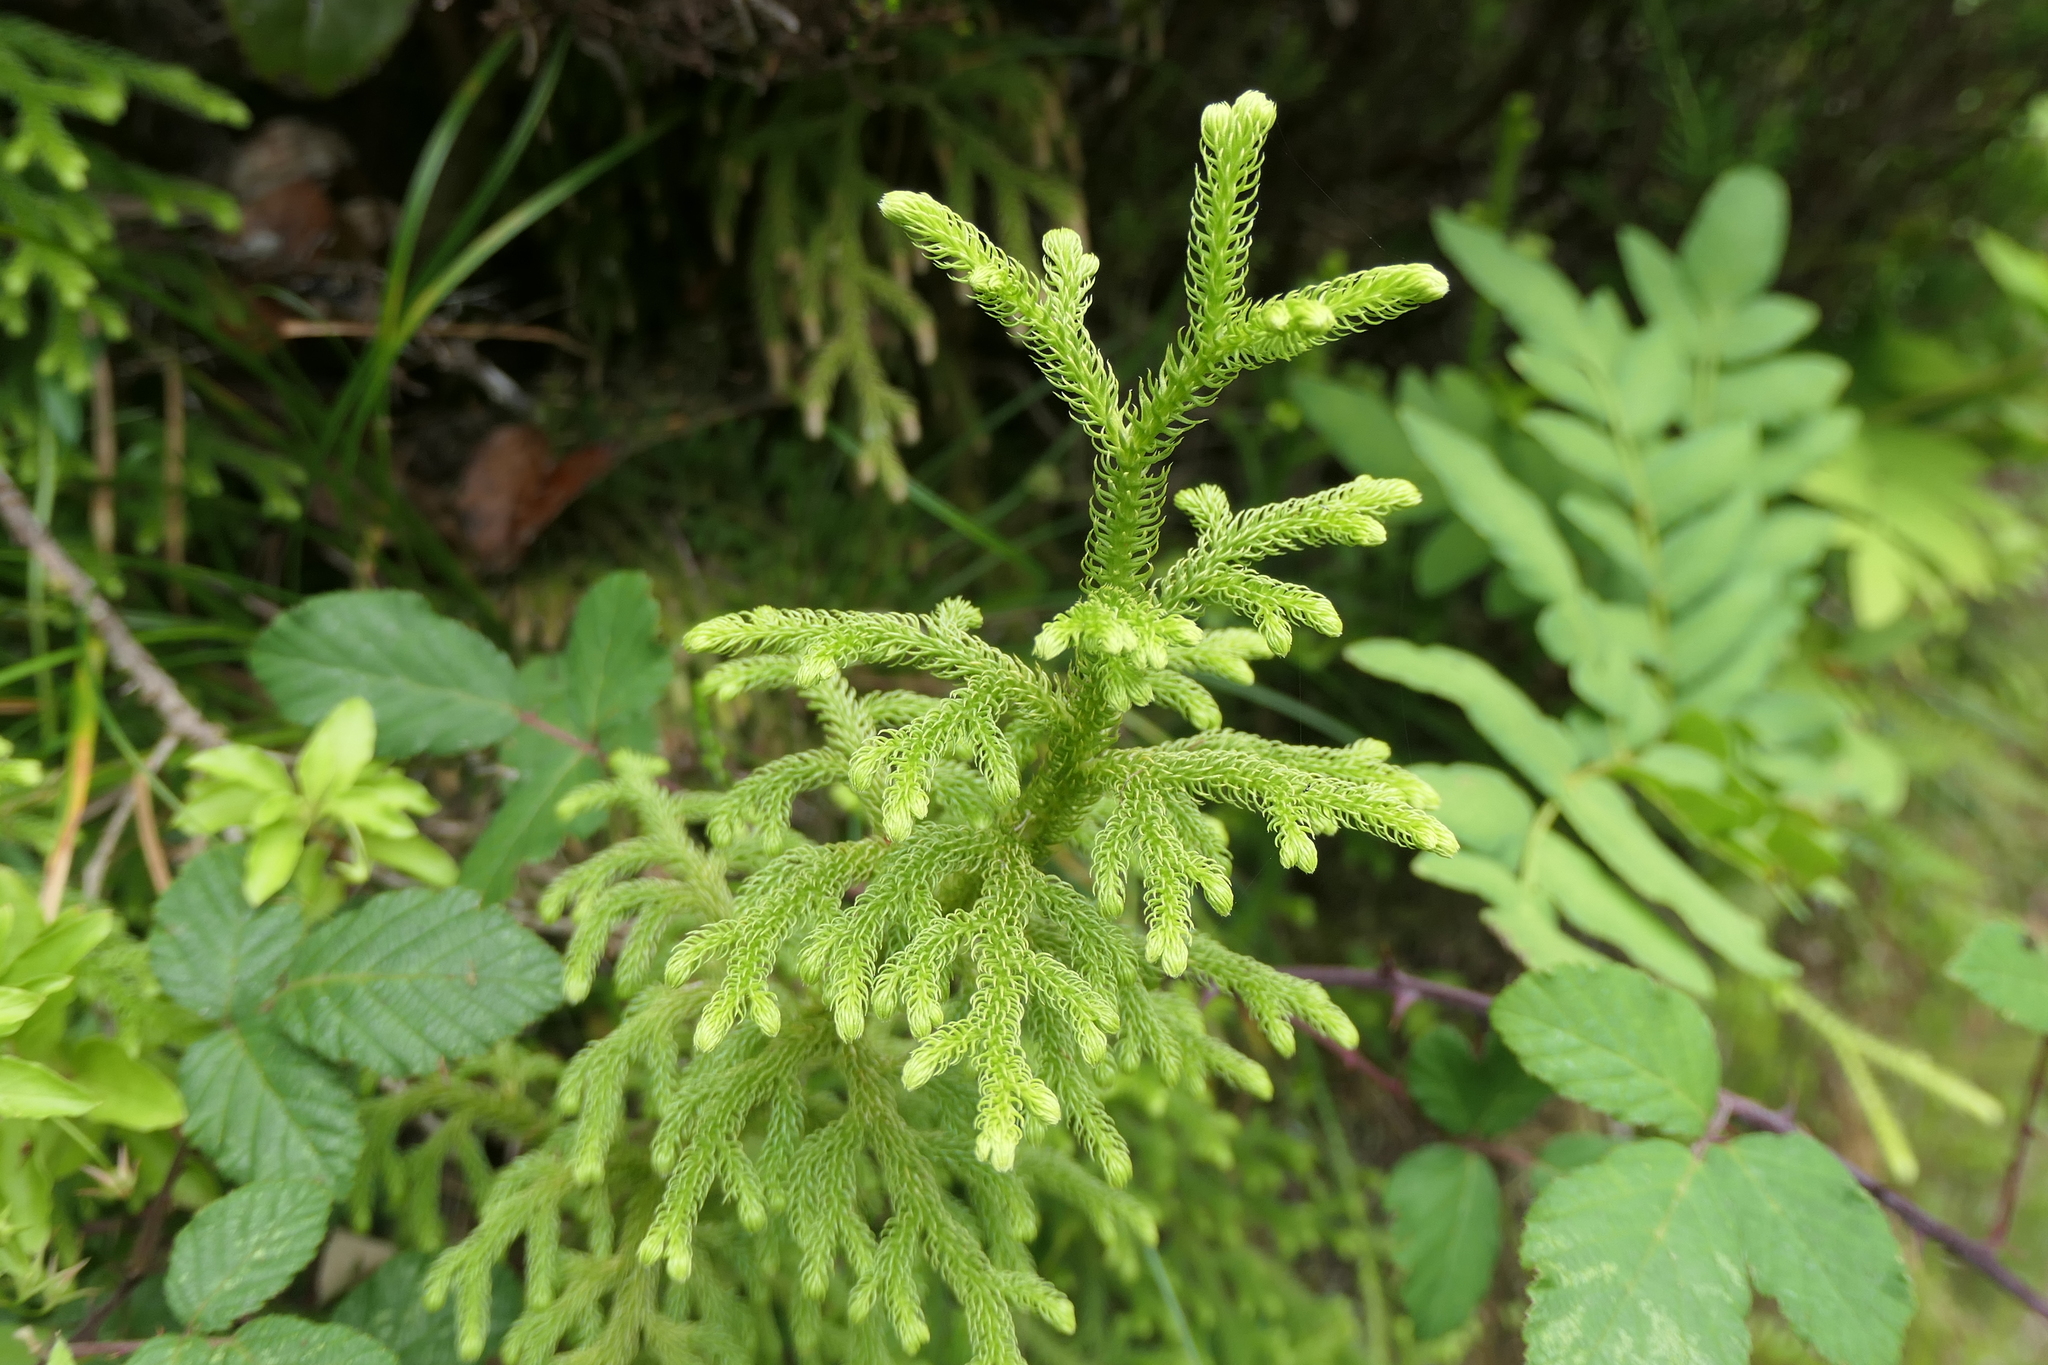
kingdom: Plantae
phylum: Tracheophyta
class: Lycopodiopsida
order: Lycopodiales
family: Lycopodiaceae
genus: Palhinhaea
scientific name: Palhinhaea cernua
